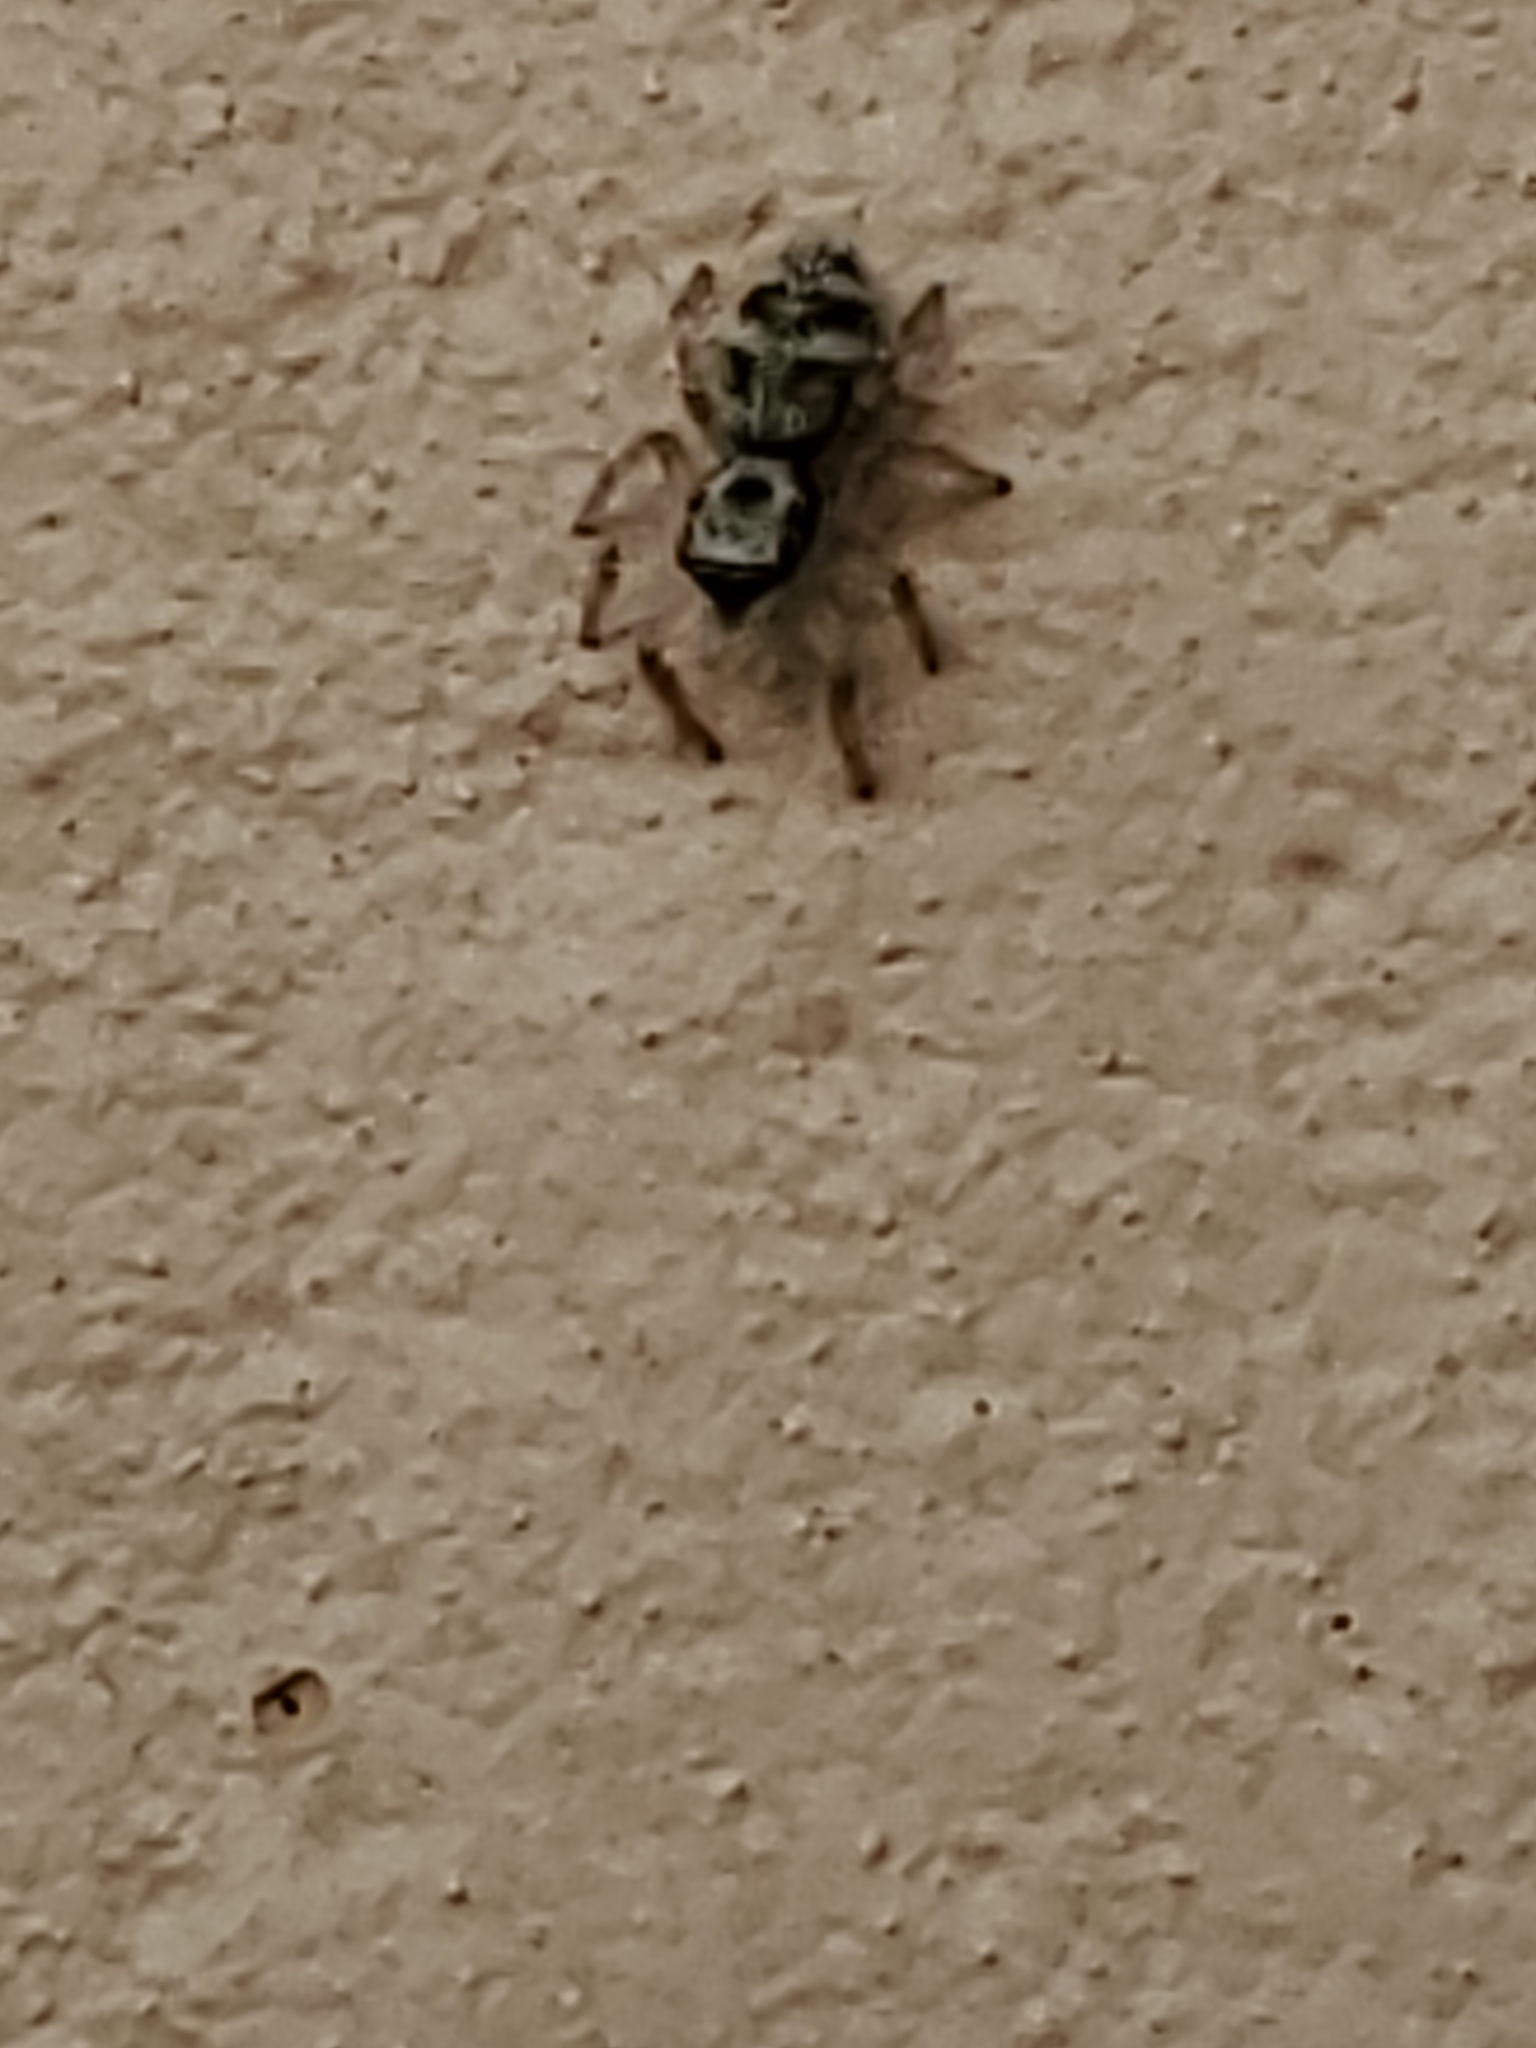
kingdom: Animalia
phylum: Arthropoda
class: Arachnida
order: Araneae
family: Salticidae
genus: Salticus
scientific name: Salticus scenicus
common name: Zebra jumper
